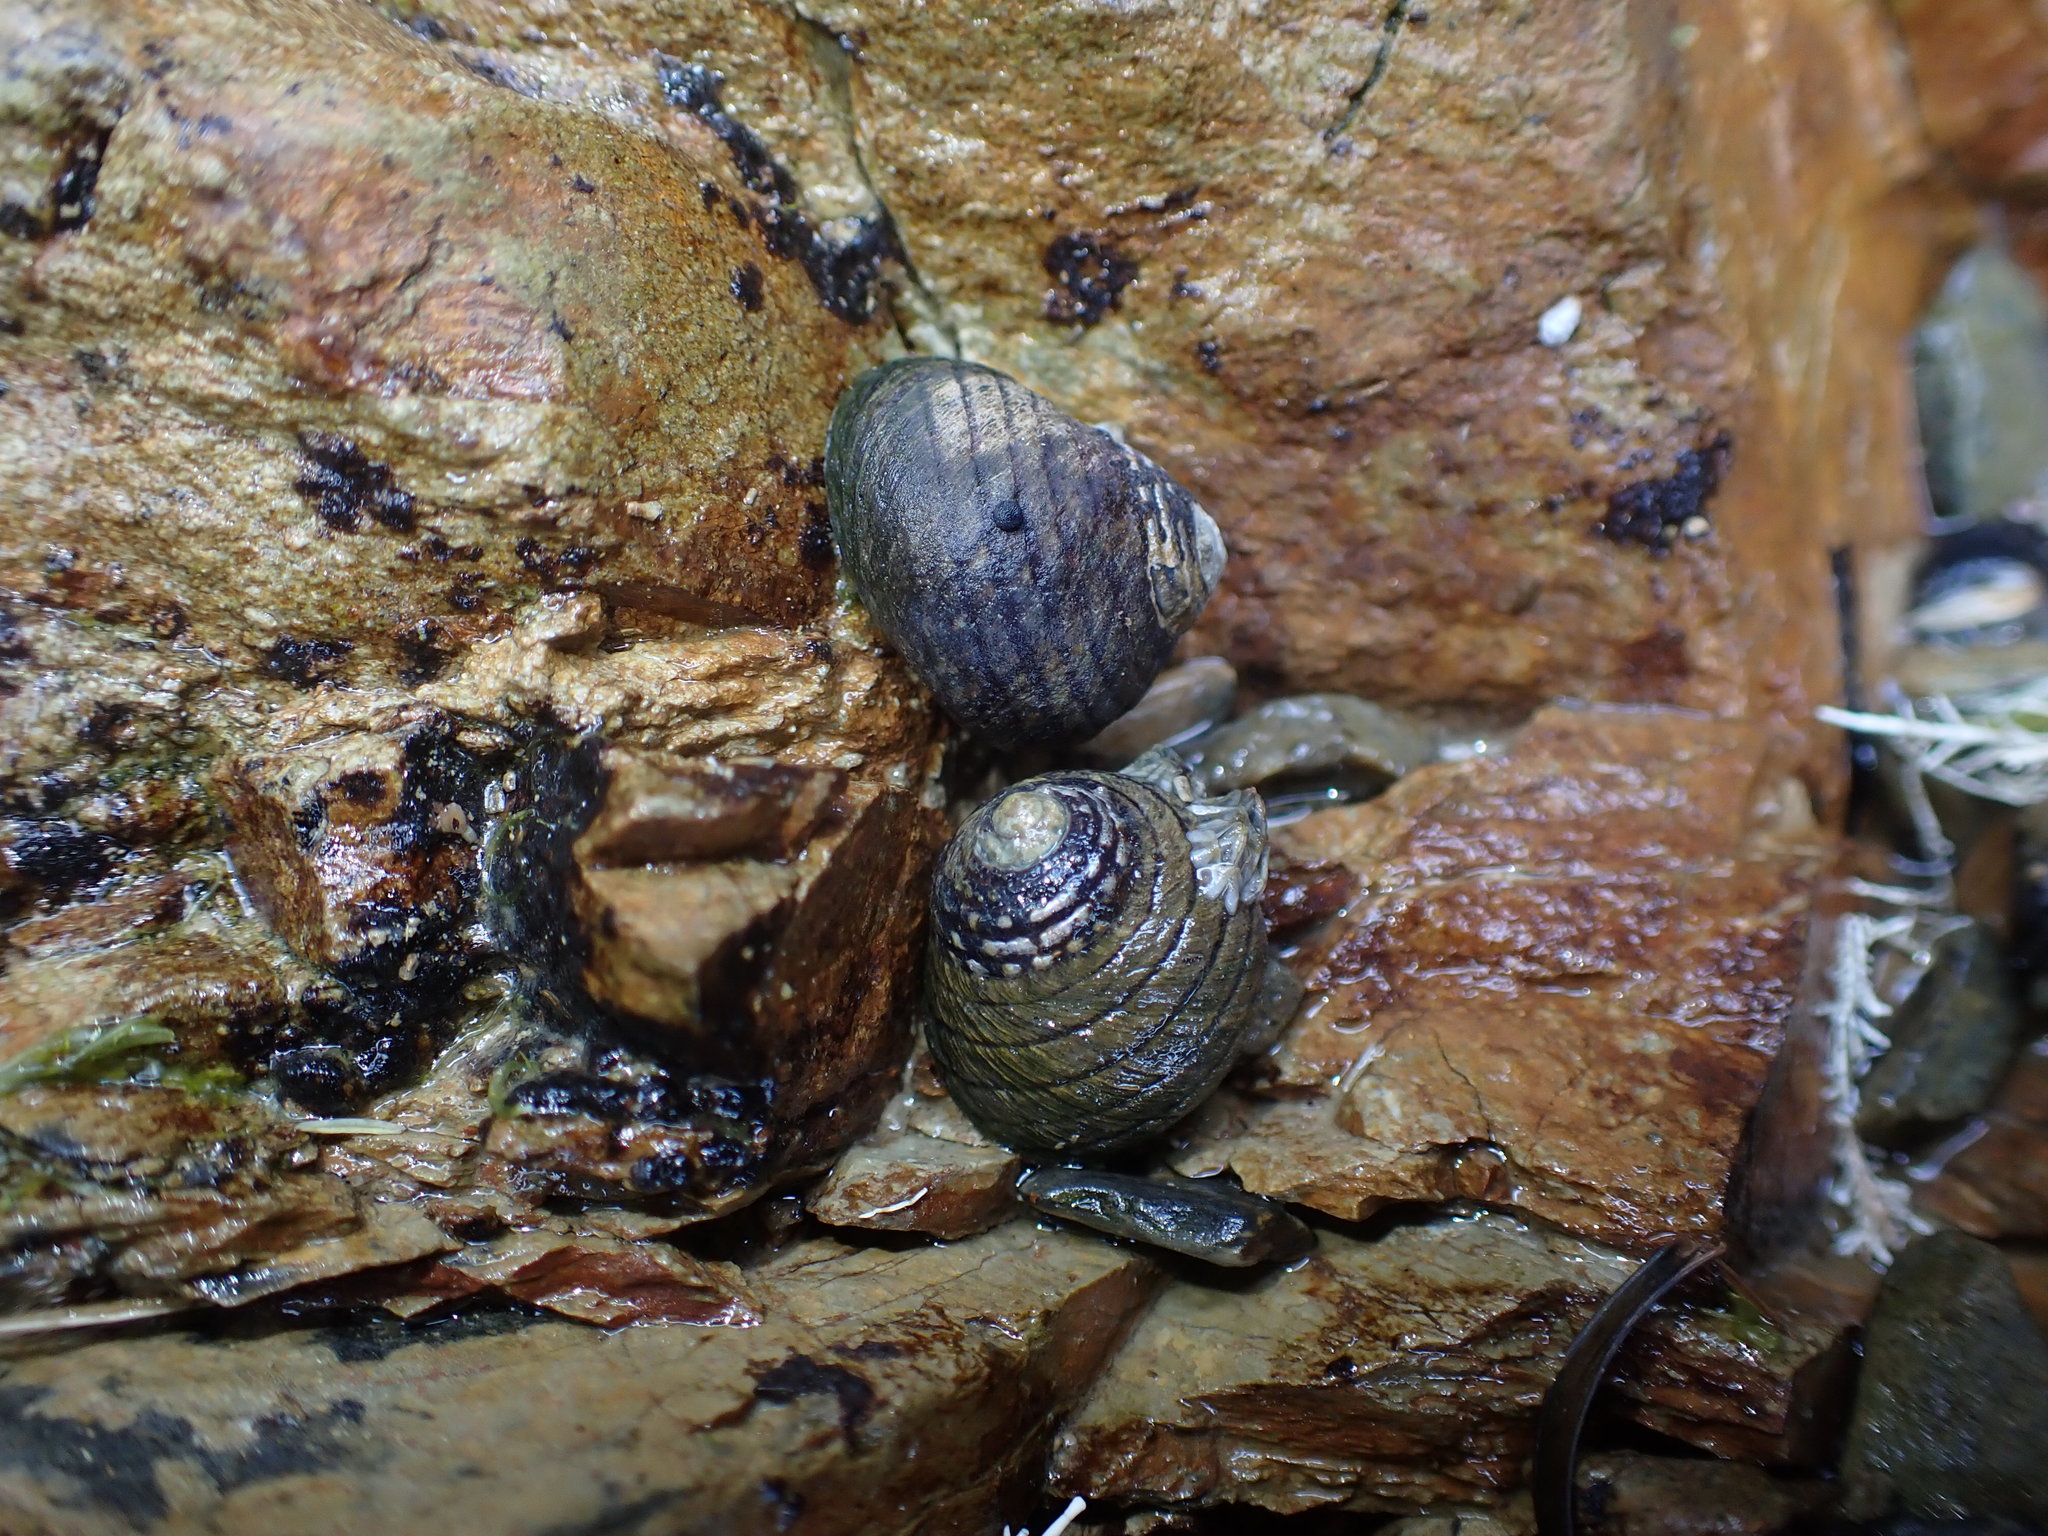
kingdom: Animalia
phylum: Mollusca
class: Gastropoda
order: Trochida
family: Trochidae
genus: Diloma
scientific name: Diloma aethiops
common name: Scorched monodont
